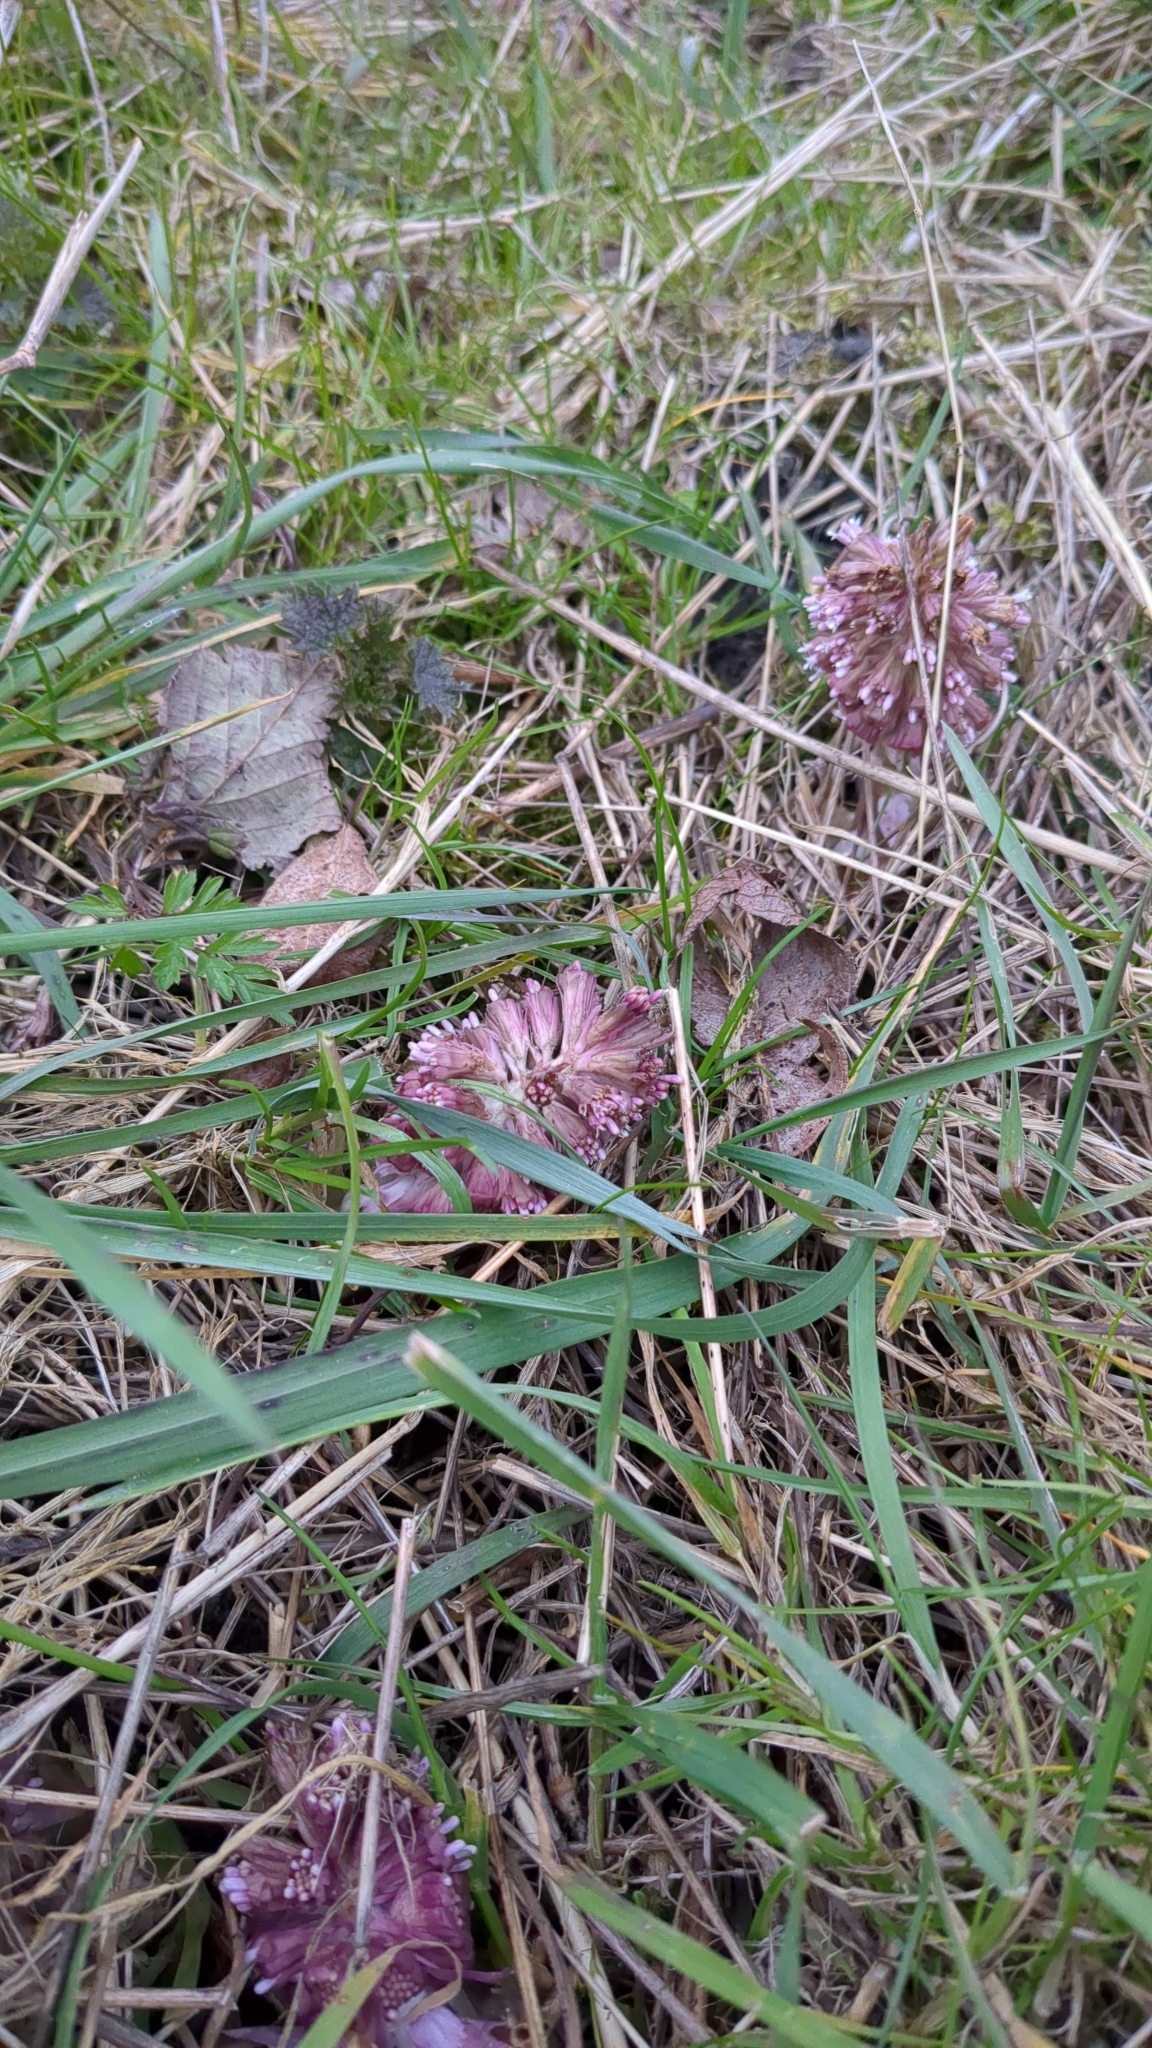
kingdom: Plantae
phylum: Tracheophyta
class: Magnoliopsida
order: Asterales
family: Asteraceae
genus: Petasites
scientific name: Petasites hybridus
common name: Butterbur
